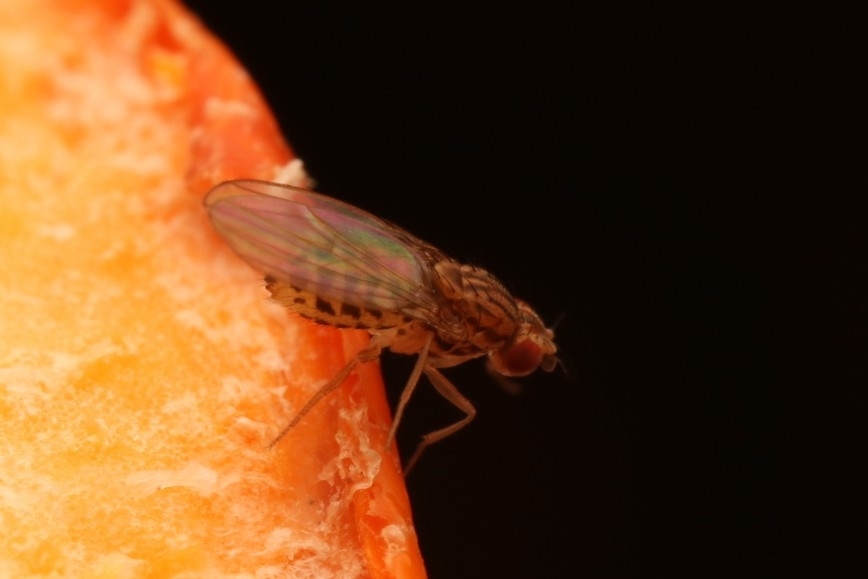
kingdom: Animalia
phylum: Arthropoda
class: Insecta
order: Diptera
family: Drosophilidae
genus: Drosophila
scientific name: Drosophila busckii
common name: Pomace fly
